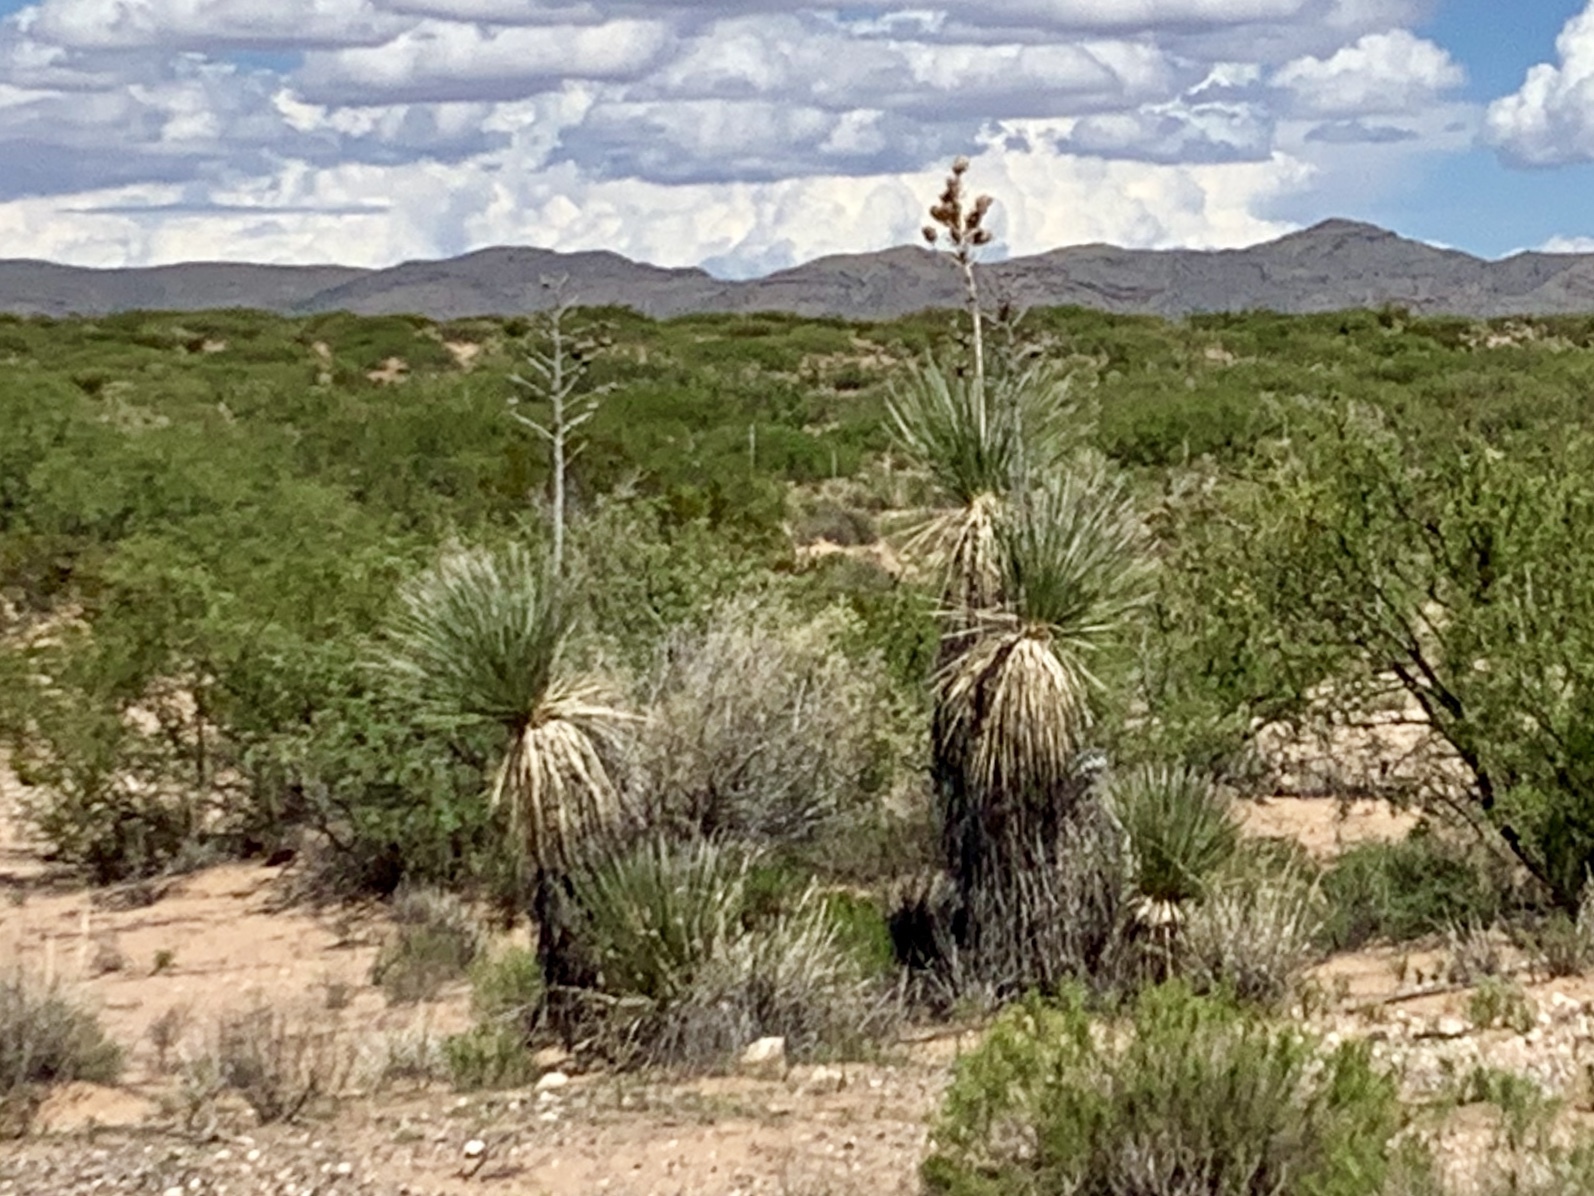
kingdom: Plantae
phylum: Tracheophyta
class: Liliopsida
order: Asparagales
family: Asparagaceae
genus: Yucca
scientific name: Yucca elata
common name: Palmella
